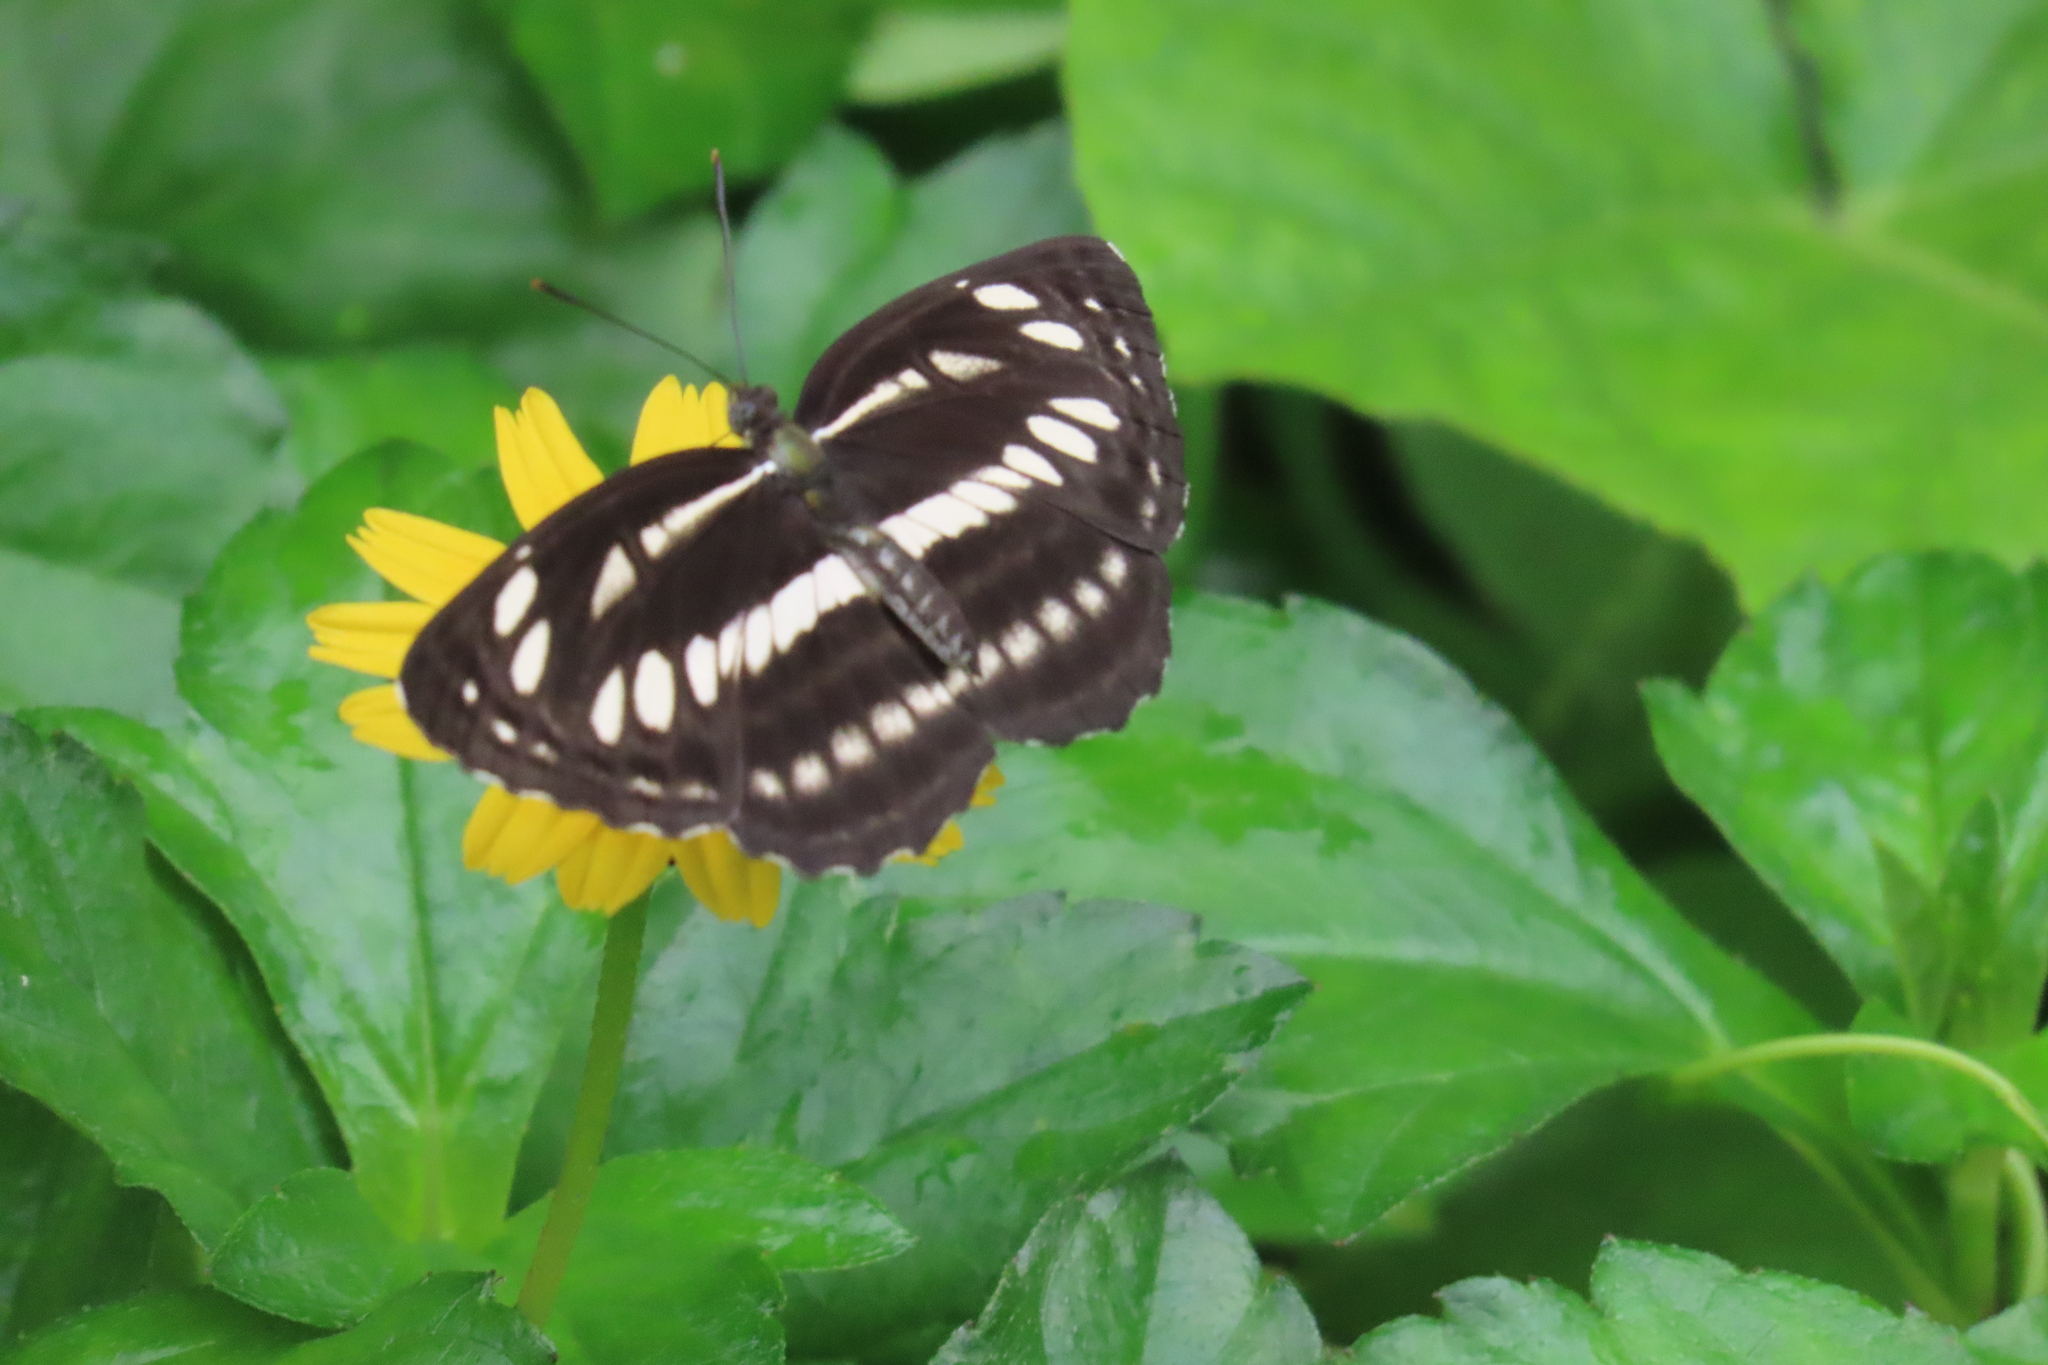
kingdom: Animalia
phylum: Arthropoda
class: Insecta
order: Lepidoptera
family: Nymphalidae
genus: Neptis
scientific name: Neptis hylas
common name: Common sailer
